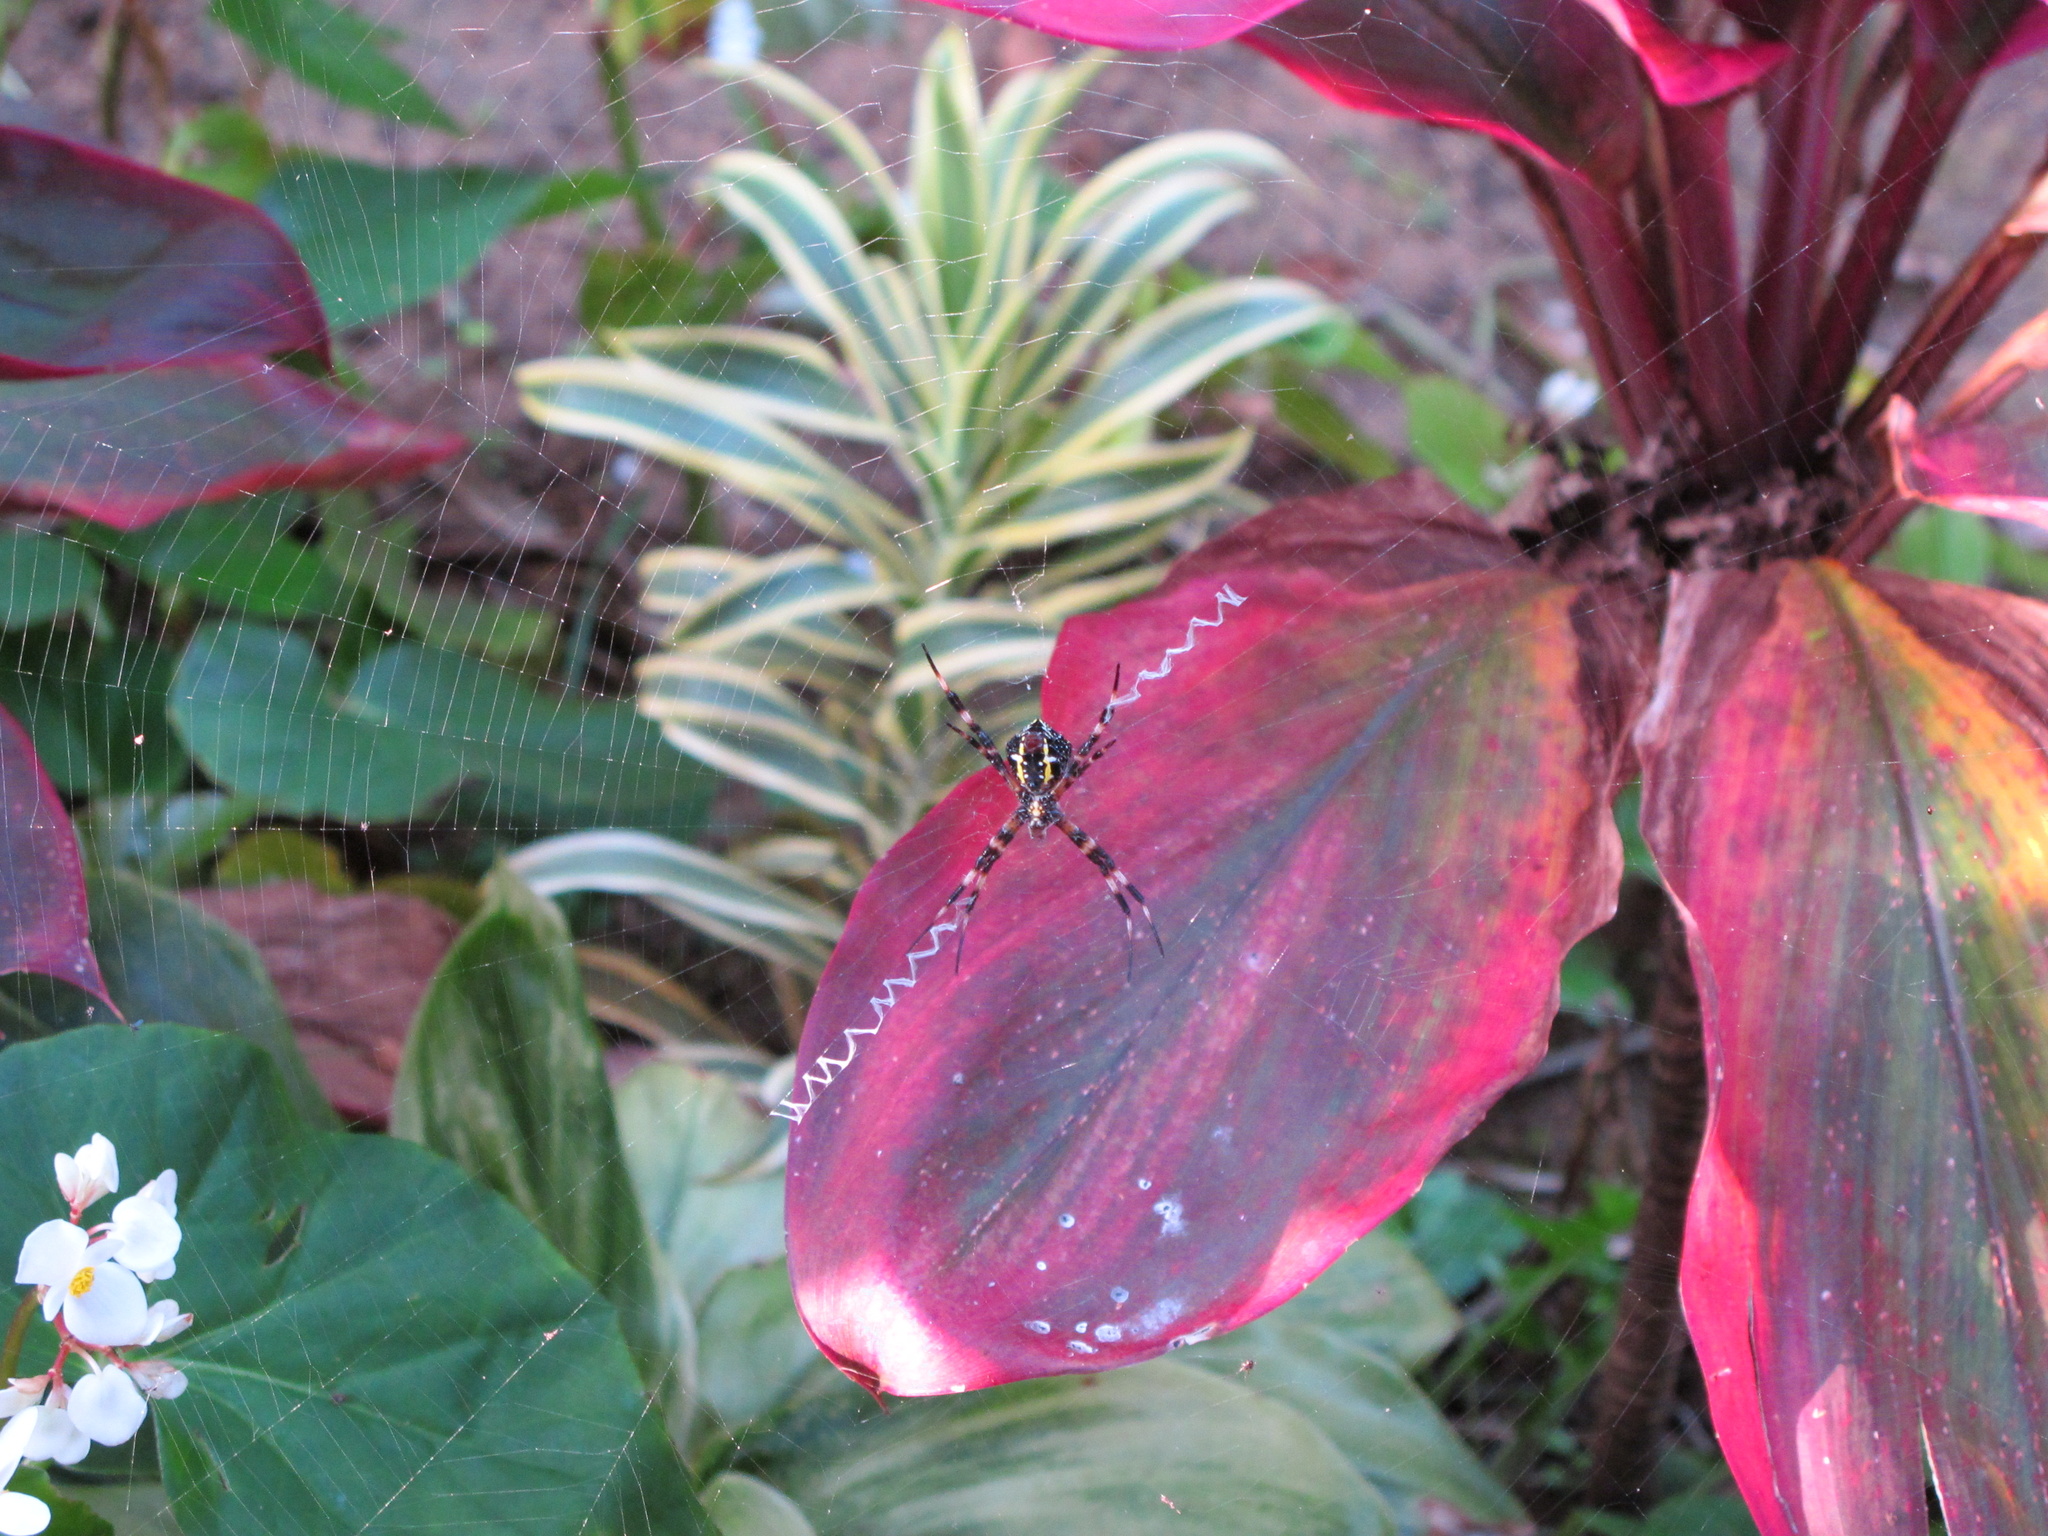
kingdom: Animalia
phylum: Arthropoda
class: Arachnida
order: Araneae
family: Araneidae
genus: Argiope
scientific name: Argiope appensa
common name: Garden spider
